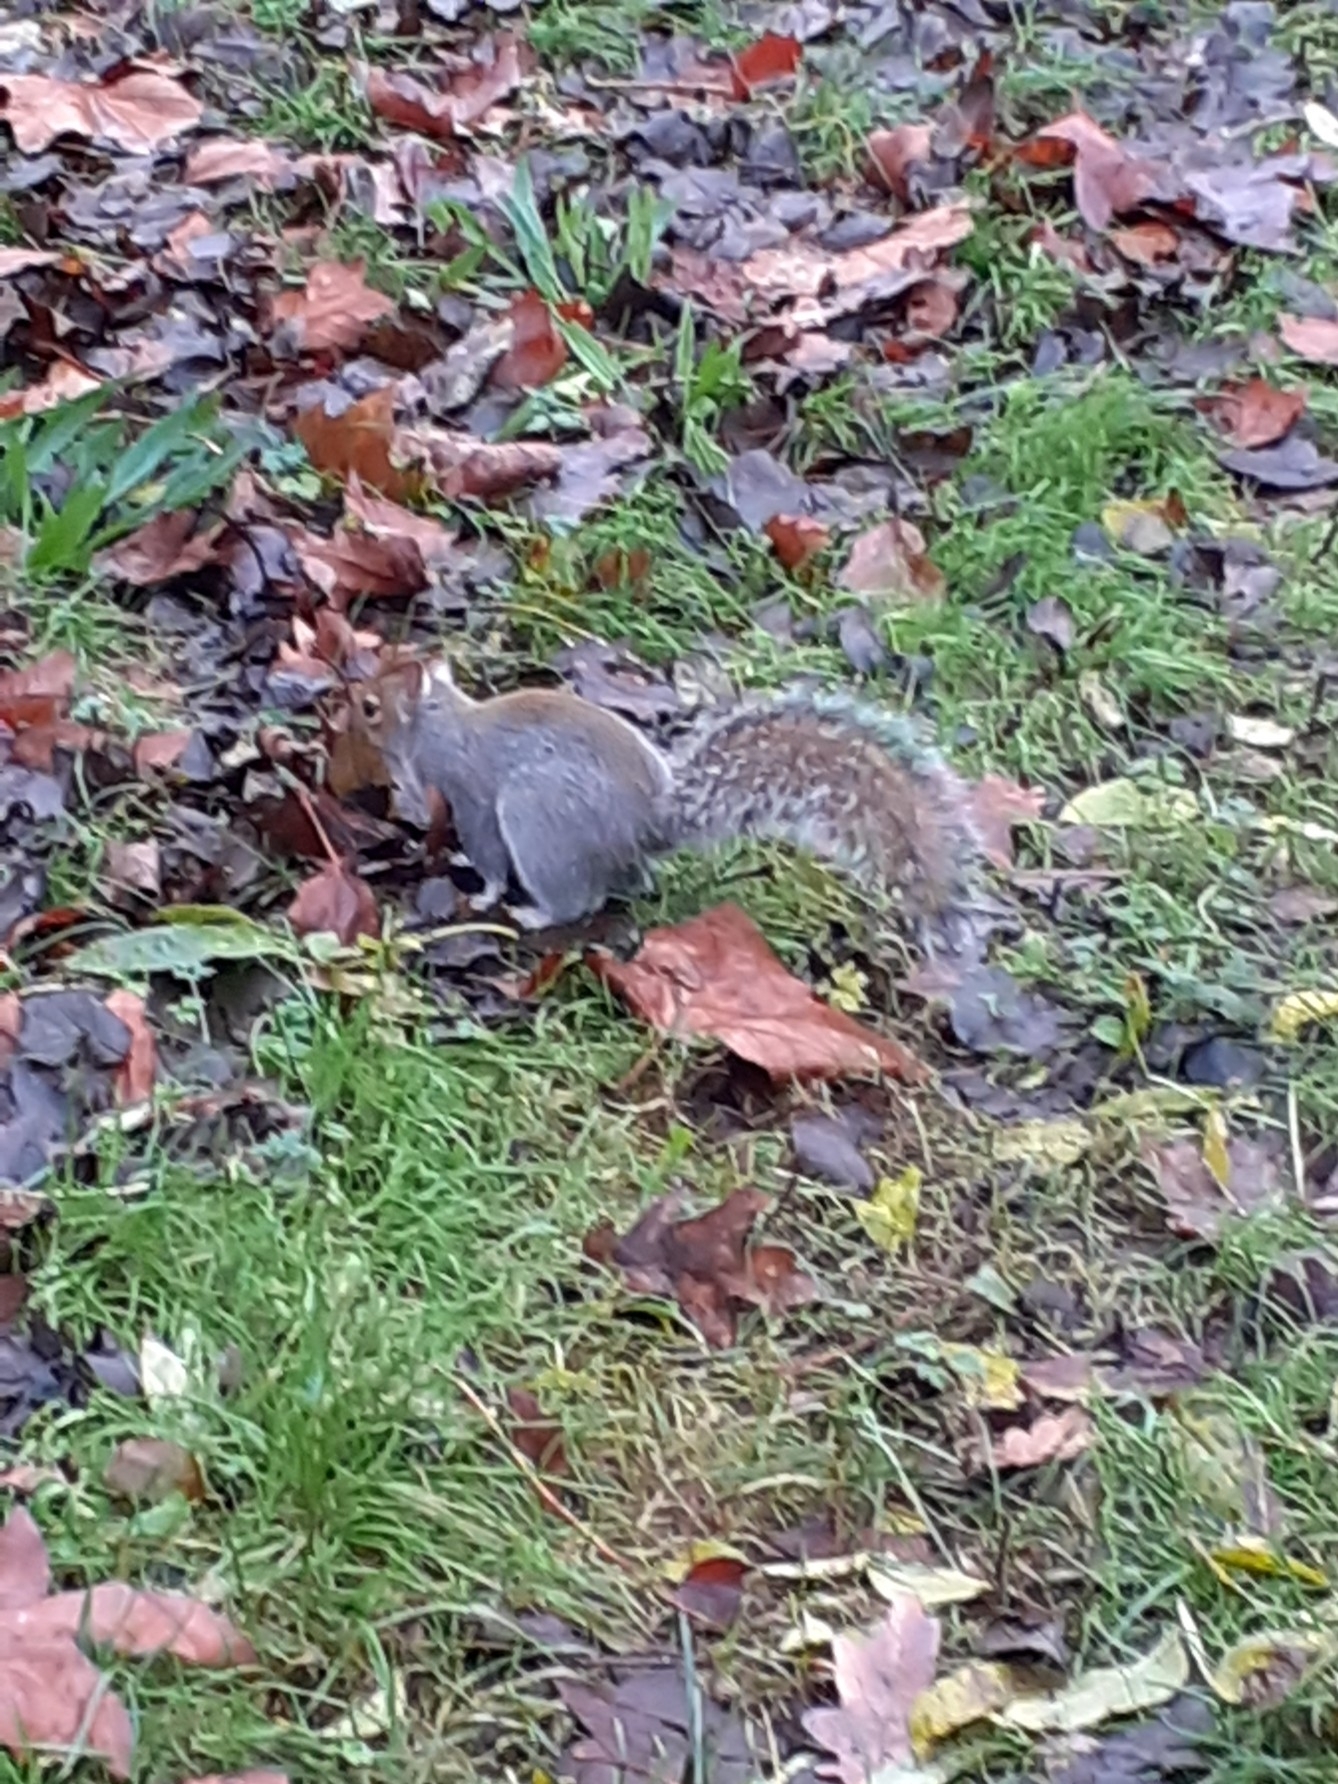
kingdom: Animalia
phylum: Chordata
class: Mammalia
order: Rodentia
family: Sciuridae
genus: Sciurus
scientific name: Sciurus carolinensis
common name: Eastern gray squirrel
